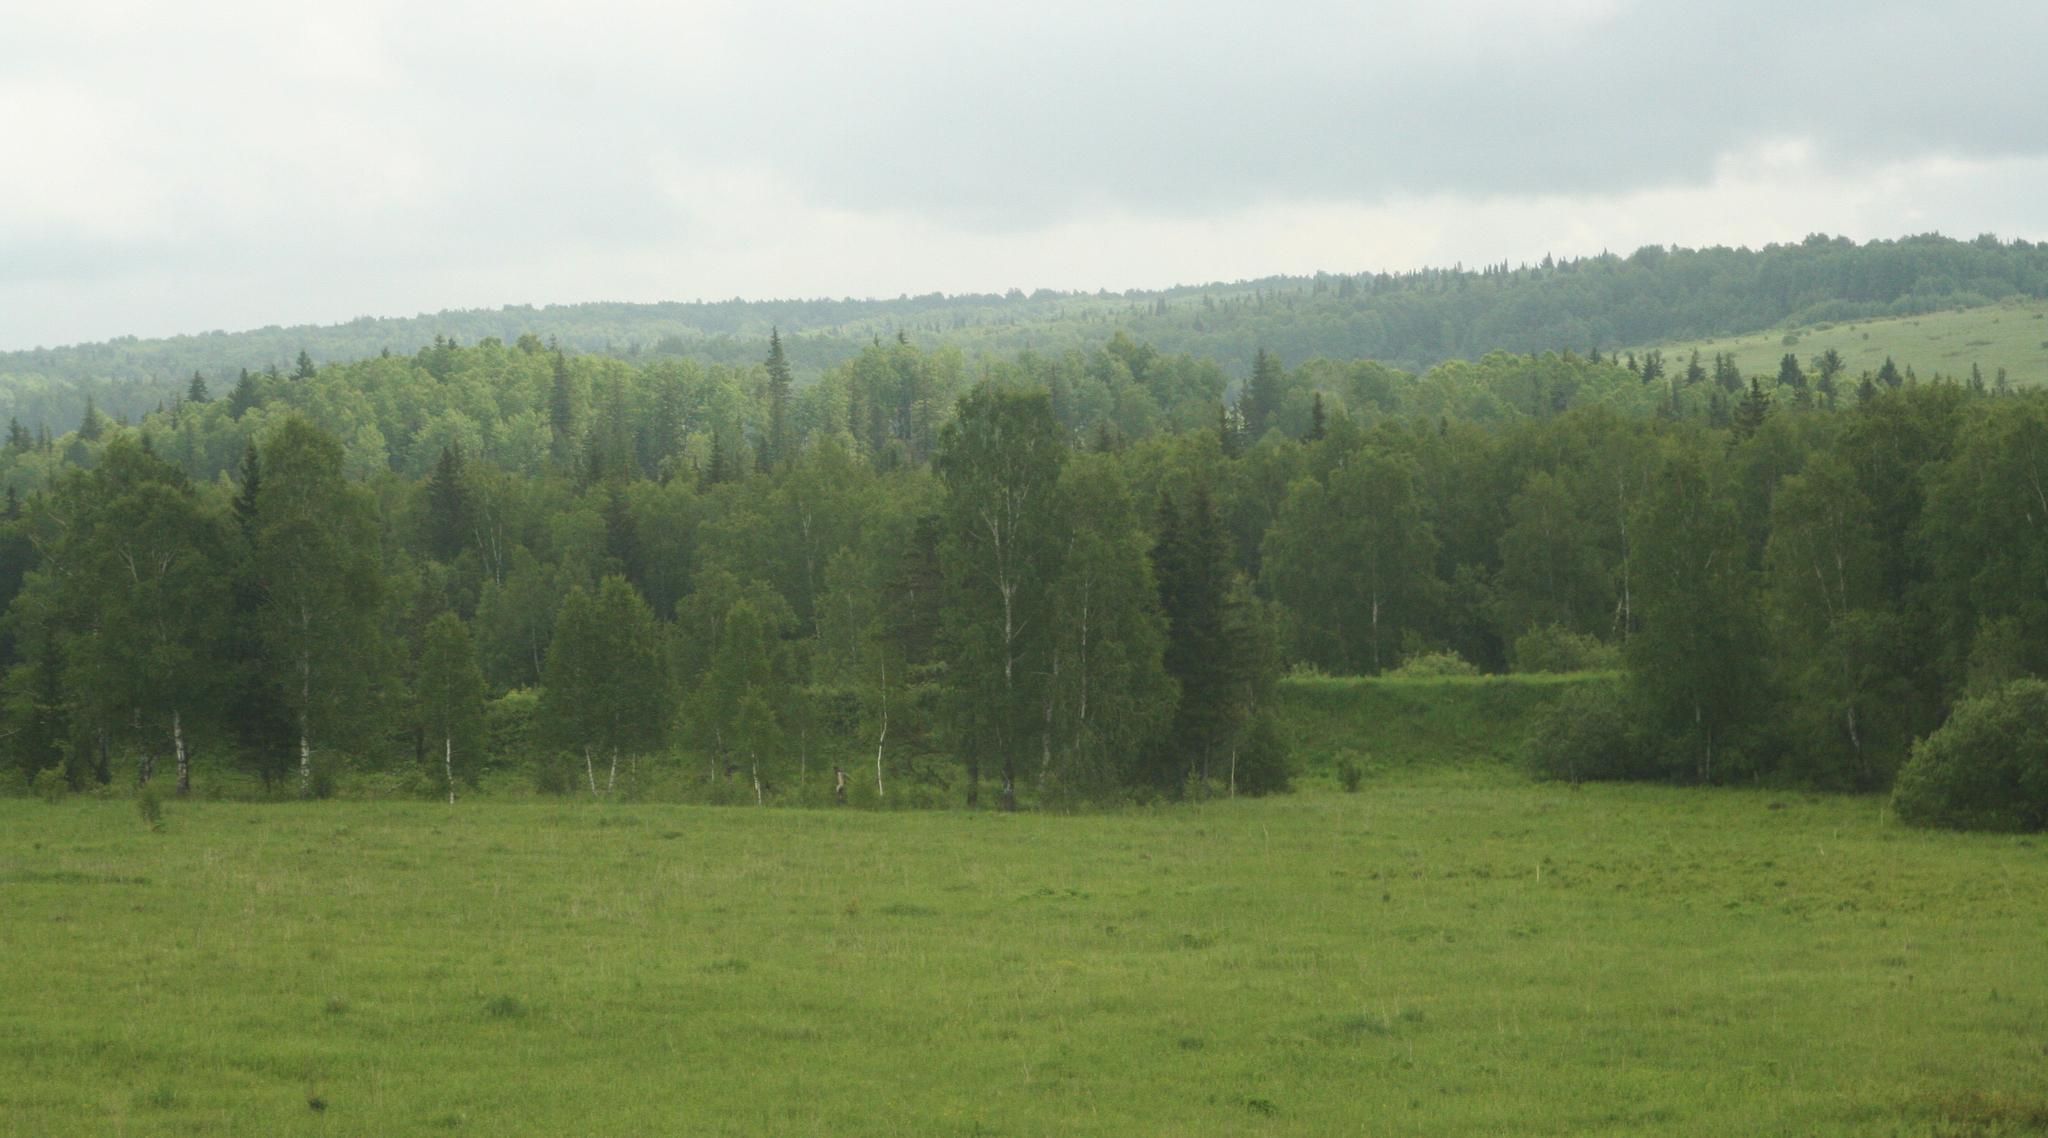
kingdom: Plantae
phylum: Tracheophyta
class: Pinopsida
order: Pinales
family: Pinaceae
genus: Picea
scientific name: Picea obovata
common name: Siberian spruce
